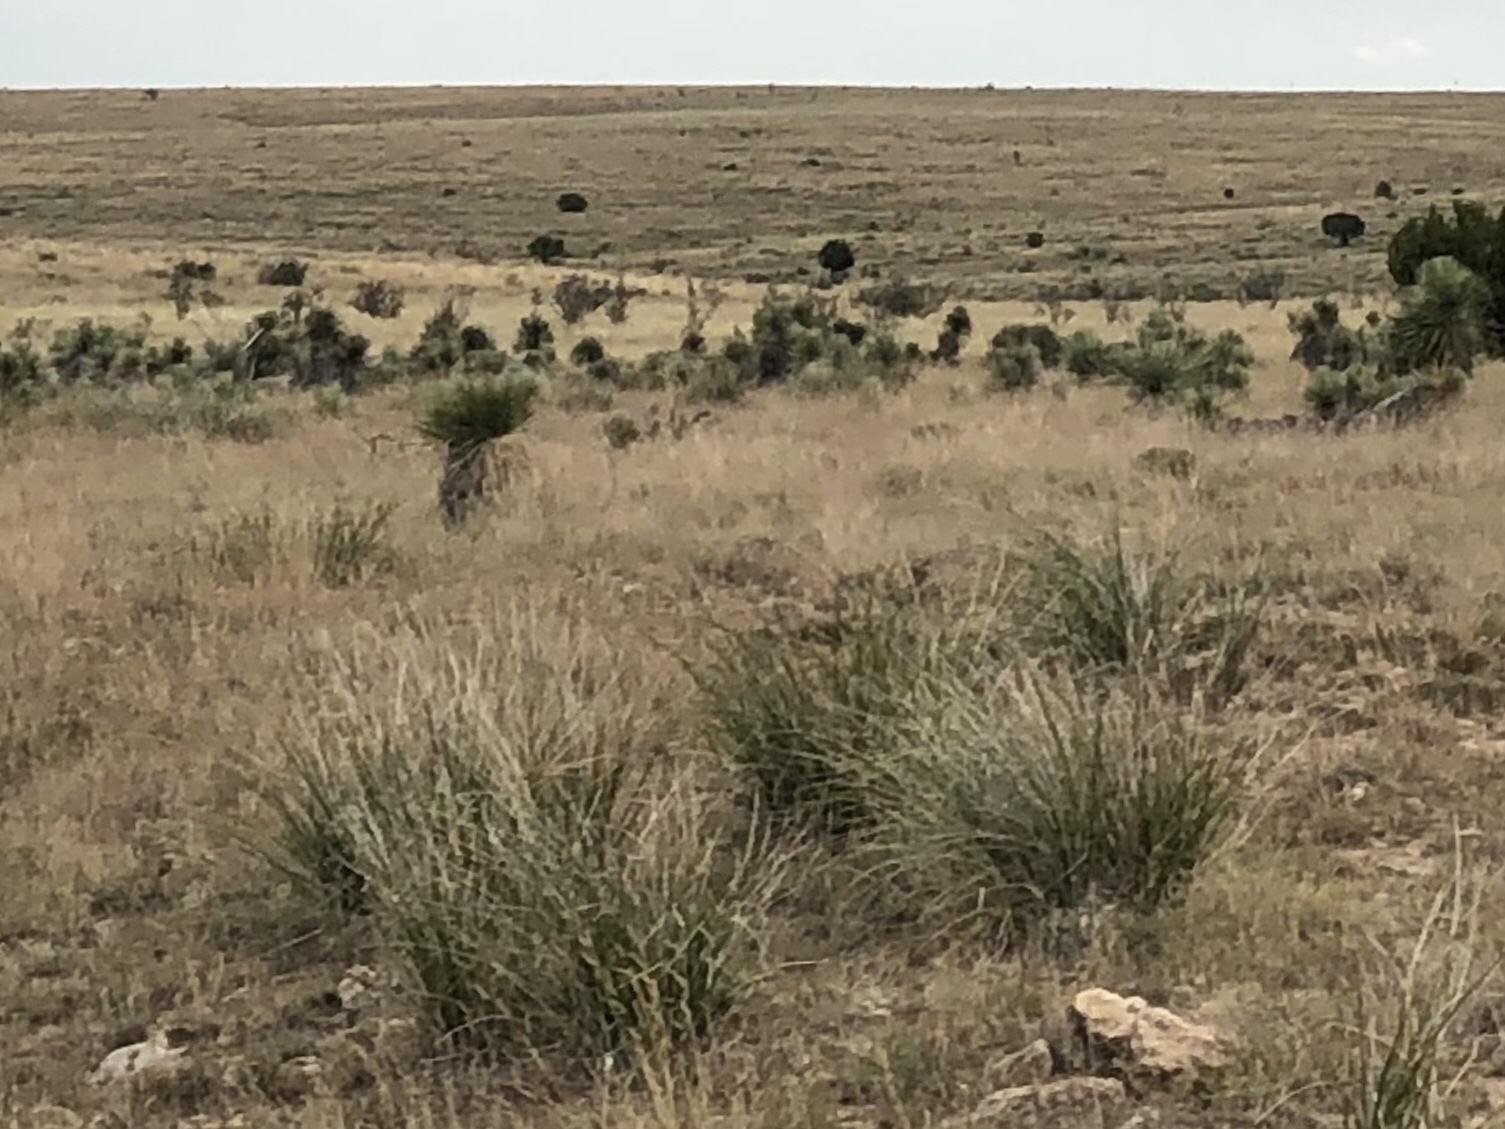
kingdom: Plantae
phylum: Tracheophyta
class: Liliopsida
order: Asparagales
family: Asparagaceae
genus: Yucca
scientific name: Yucca elata
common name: Palmella
